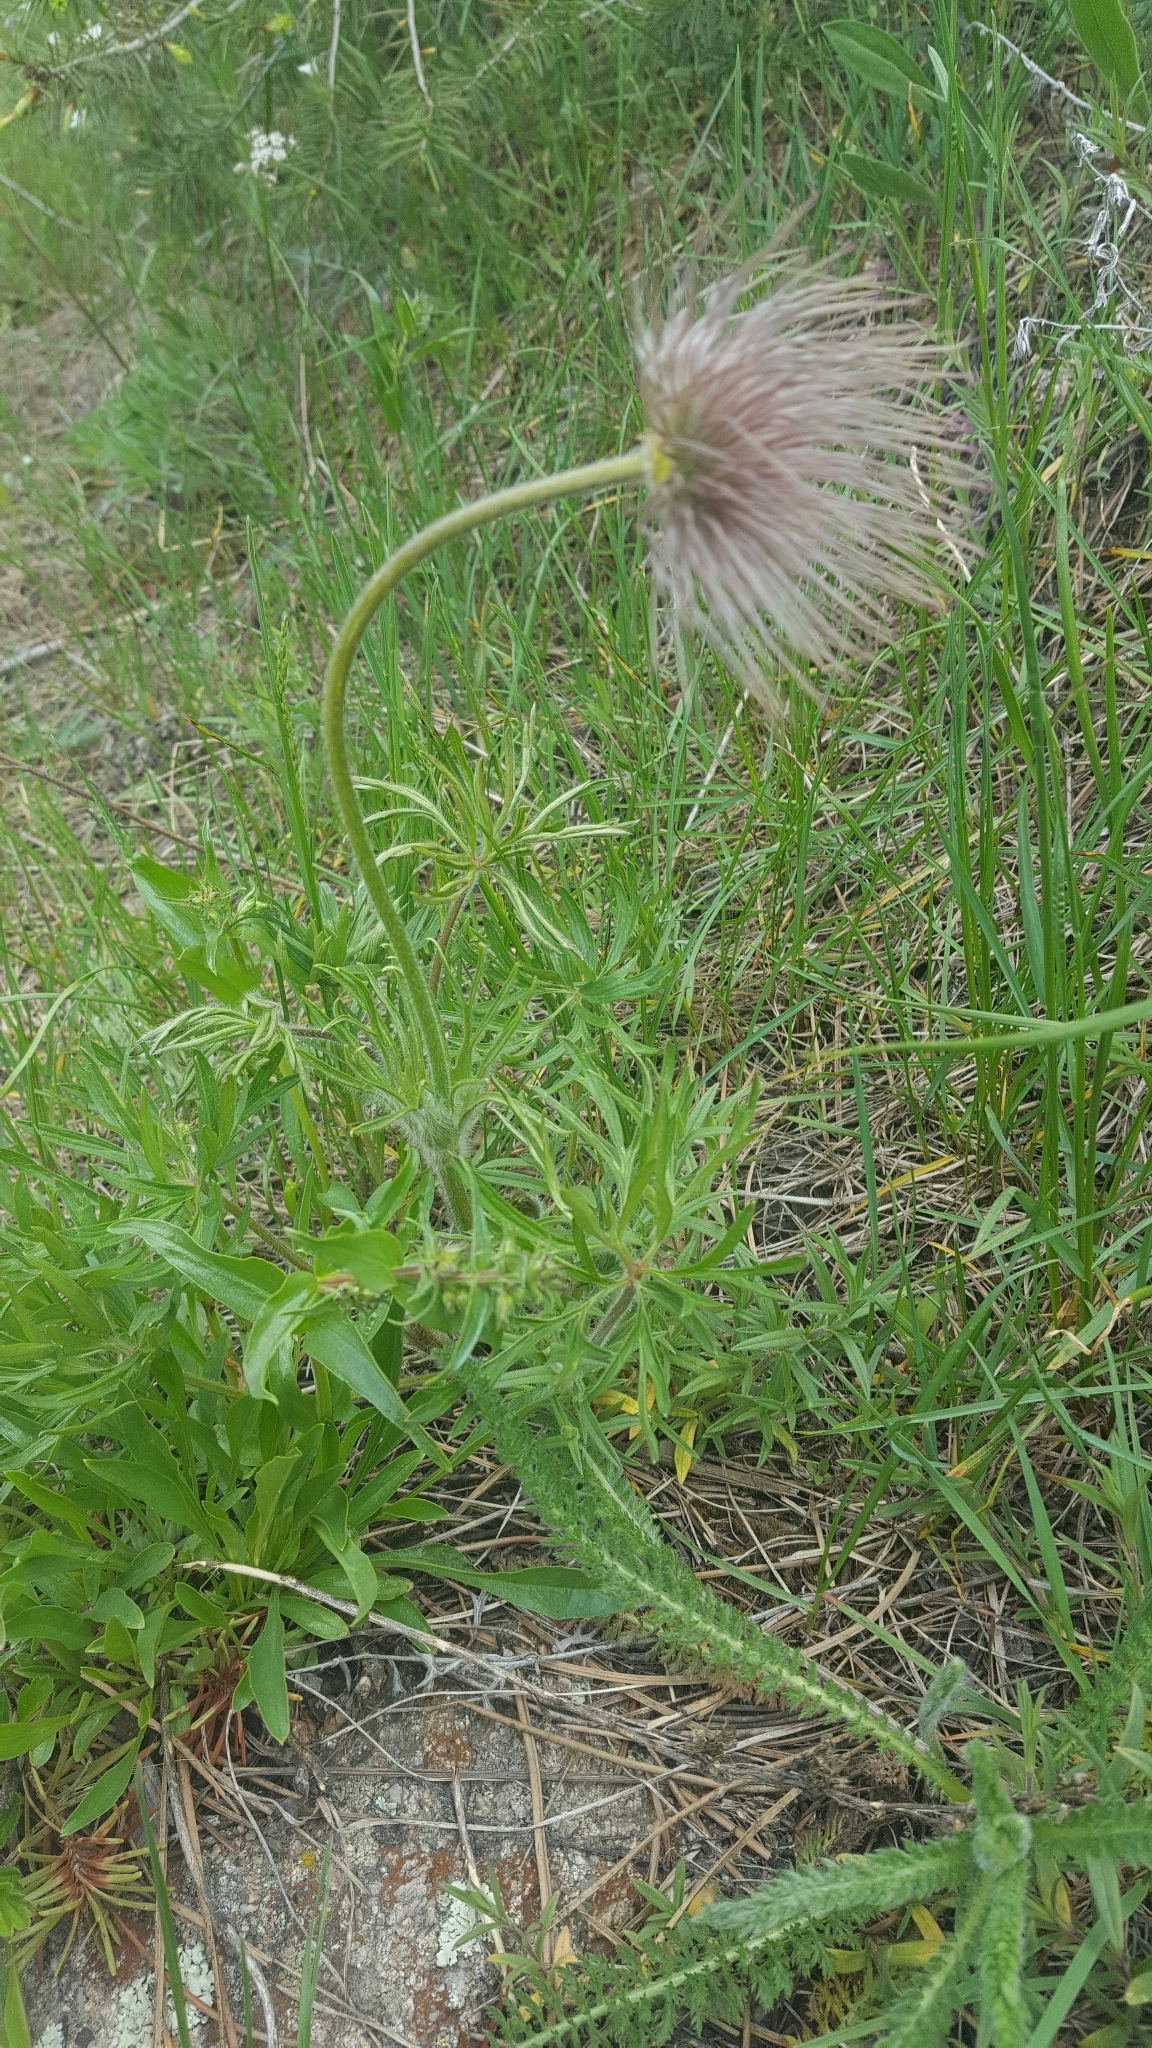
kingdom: Plantae
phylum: Tracheophyta
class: Magnoliopsida
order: Ranunculales
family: Ranunculaceae
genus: Pulsatilla
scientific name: Pulsatilla nuttalliana
